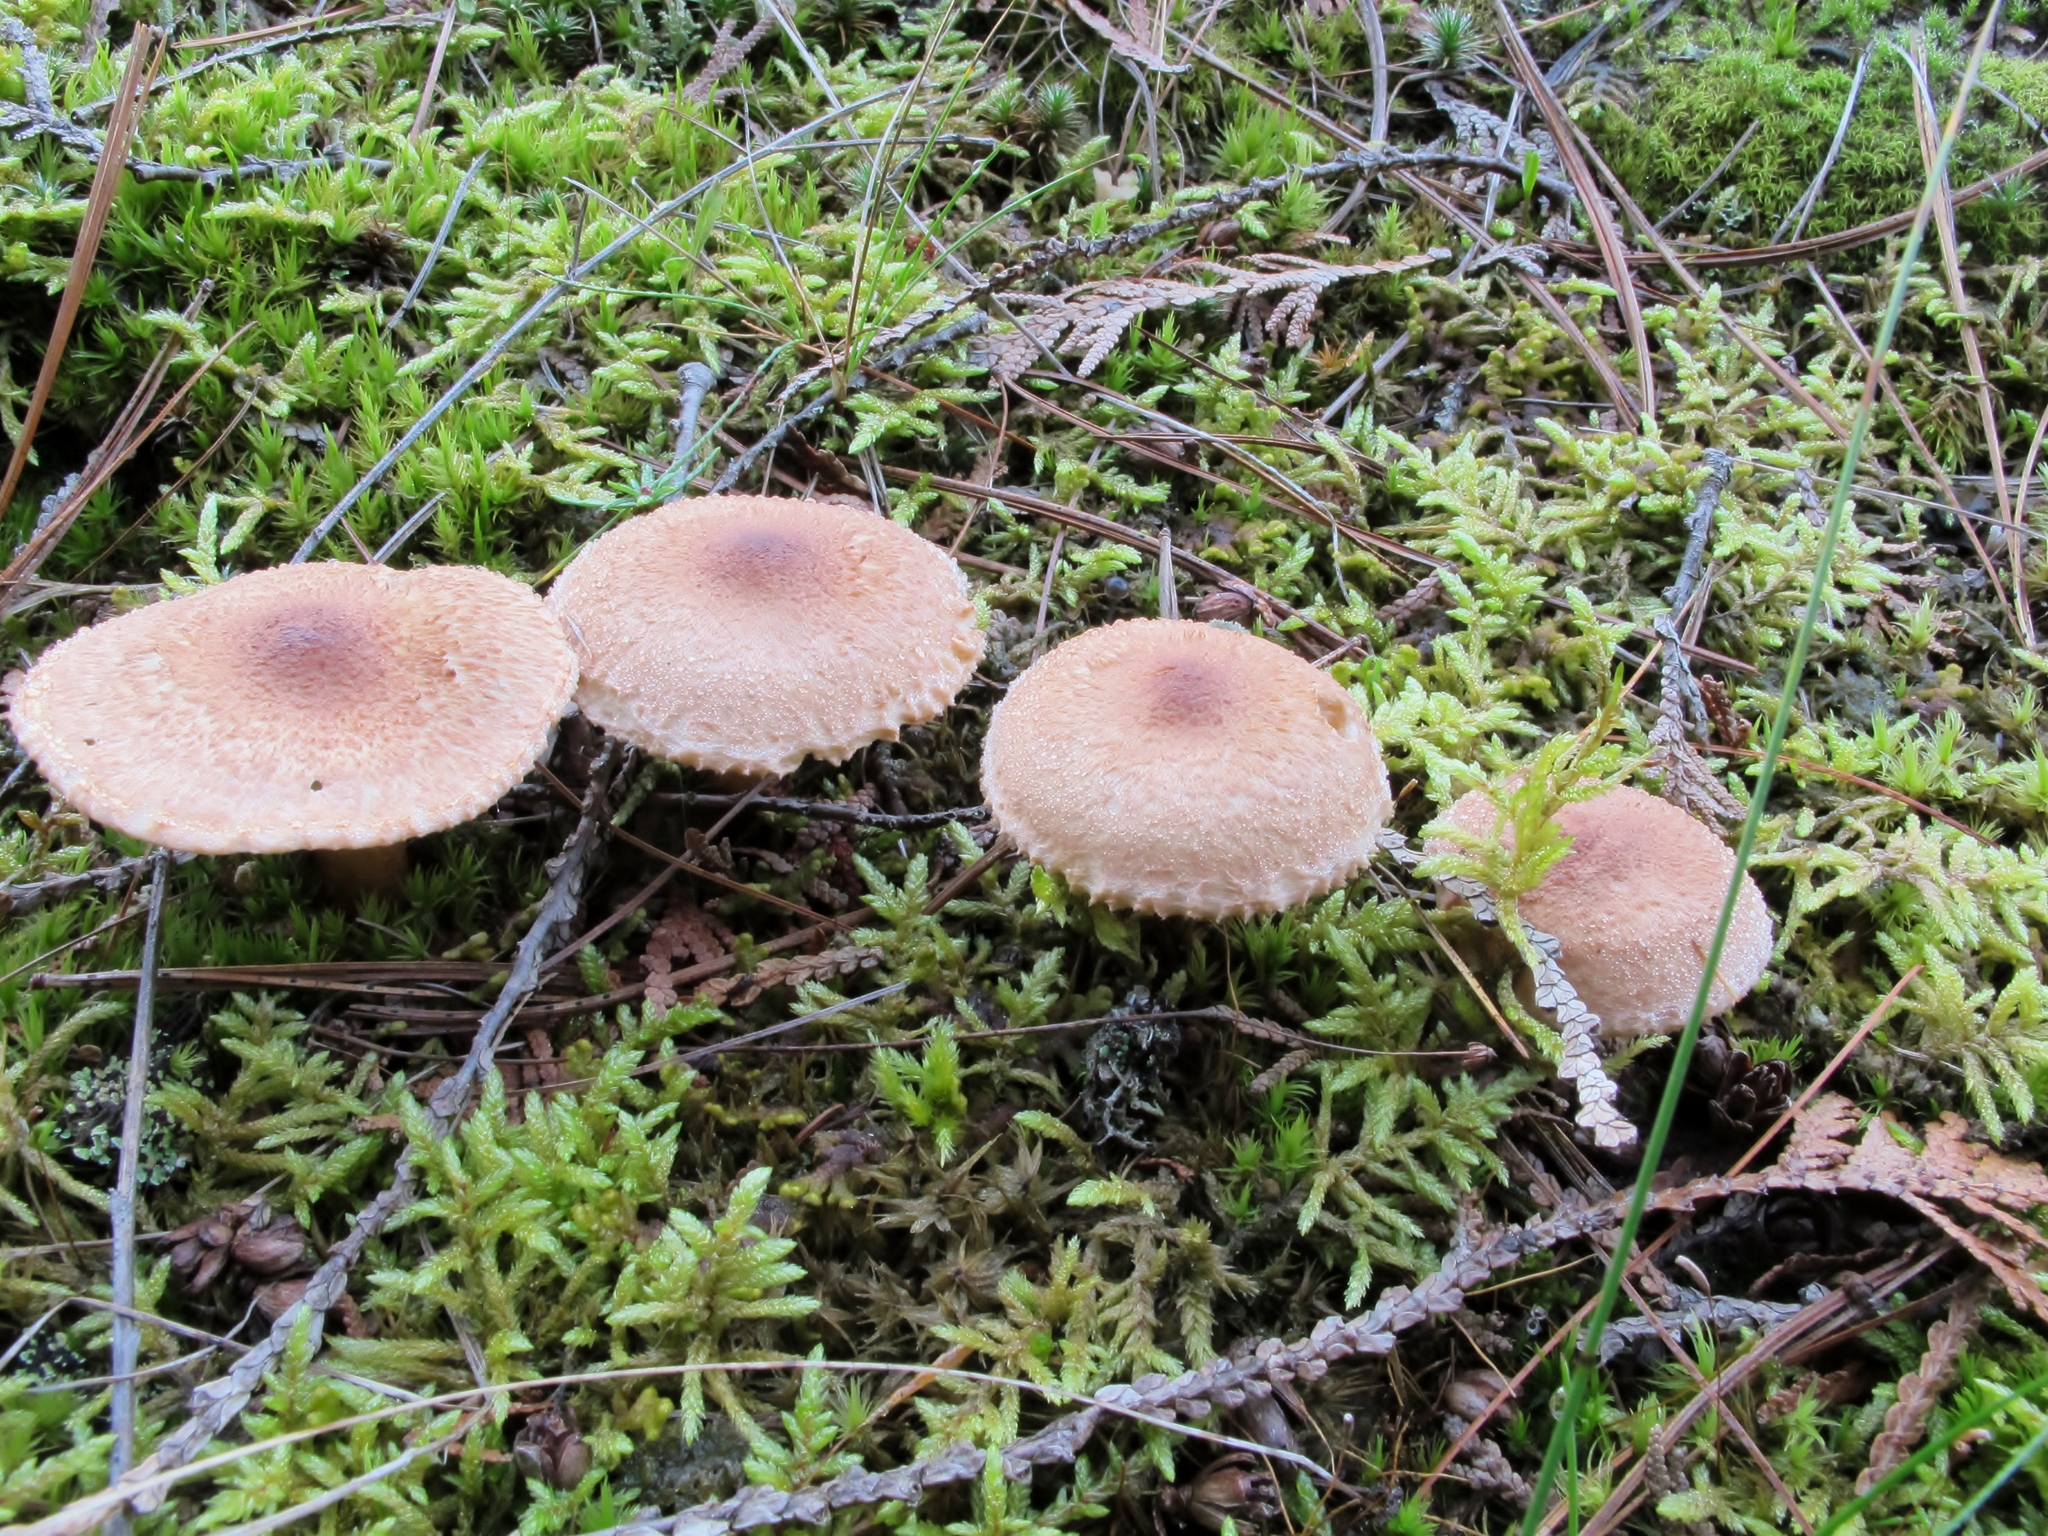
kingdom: Fungi
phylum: Basidiomycota
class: Agaricomycetes
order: Agaricales
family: Tricholomataceae
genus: Tricholoma
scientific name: Tricholoma vaccinum
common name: Scaly knight
